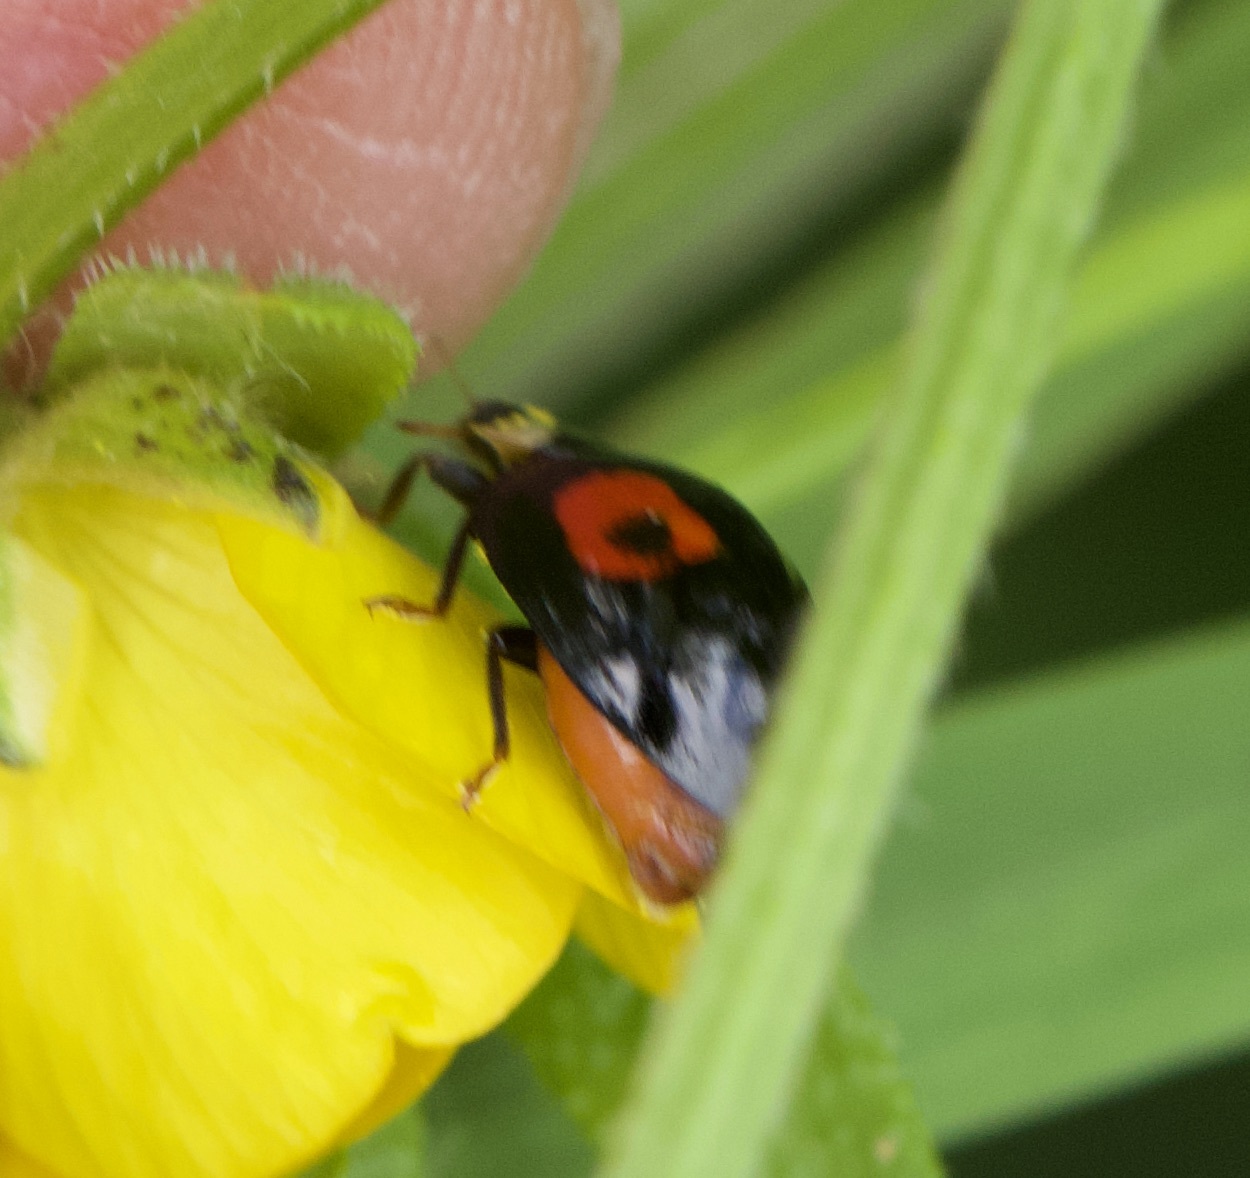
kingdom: Animalia
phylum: Arthropoda
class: Insecta
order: Coleoptera
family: Coccinellidae
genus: Harmonia
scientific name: Harmonia axyridis
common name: Harlequin ladybird
